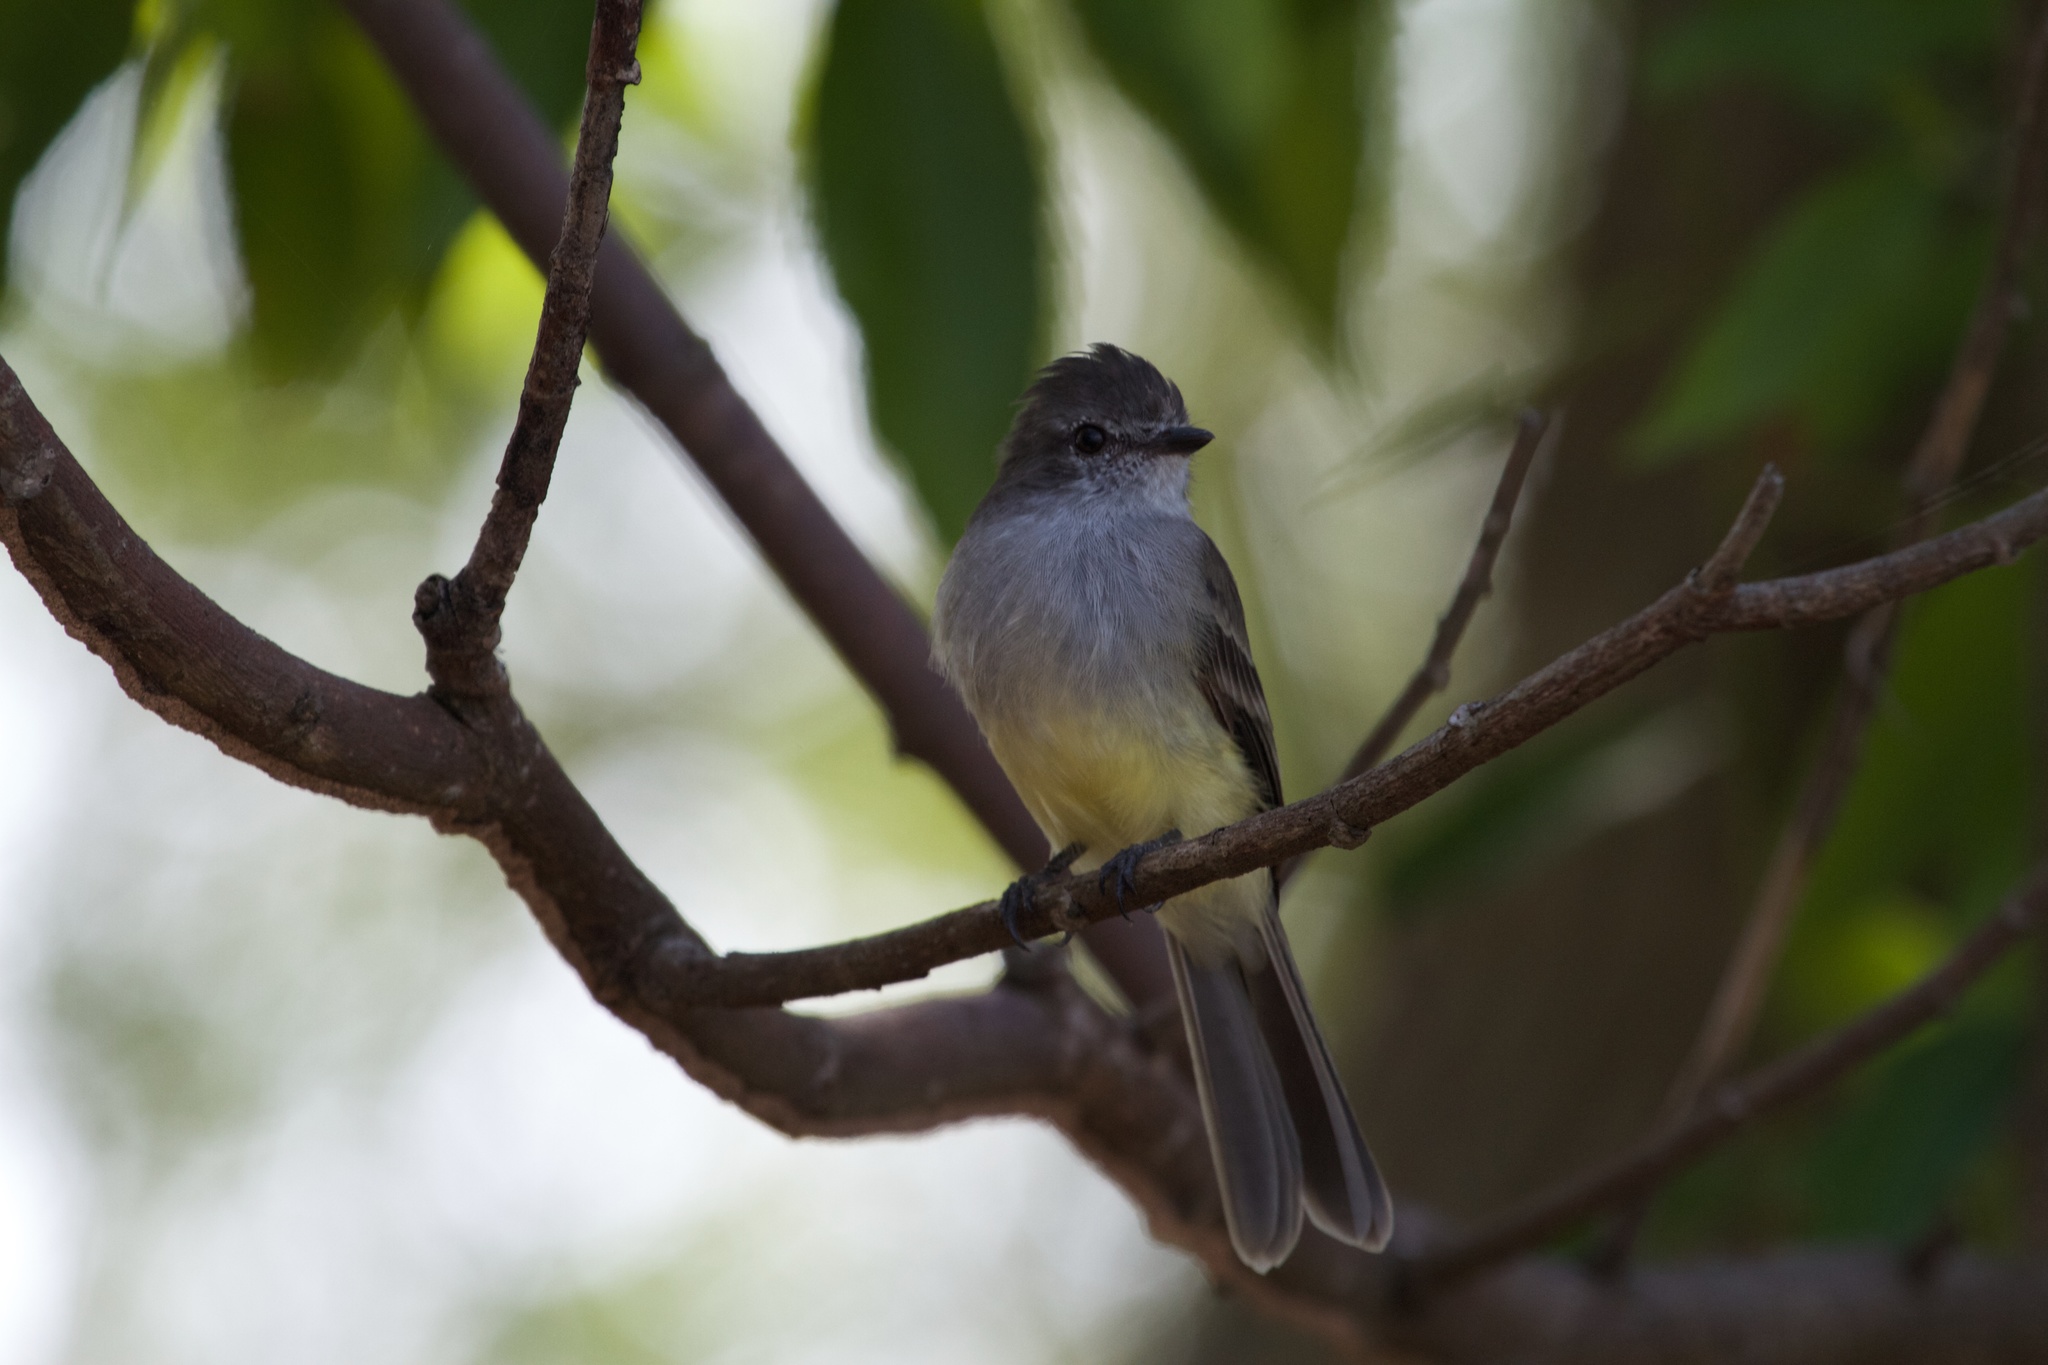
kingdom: Animalia
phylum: Chordata
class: Aves
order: Passeriformes
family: Tyrannidae
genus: Sublegatus
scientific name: Sublegatus arenarum
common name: Northern scrub-flycatcher
